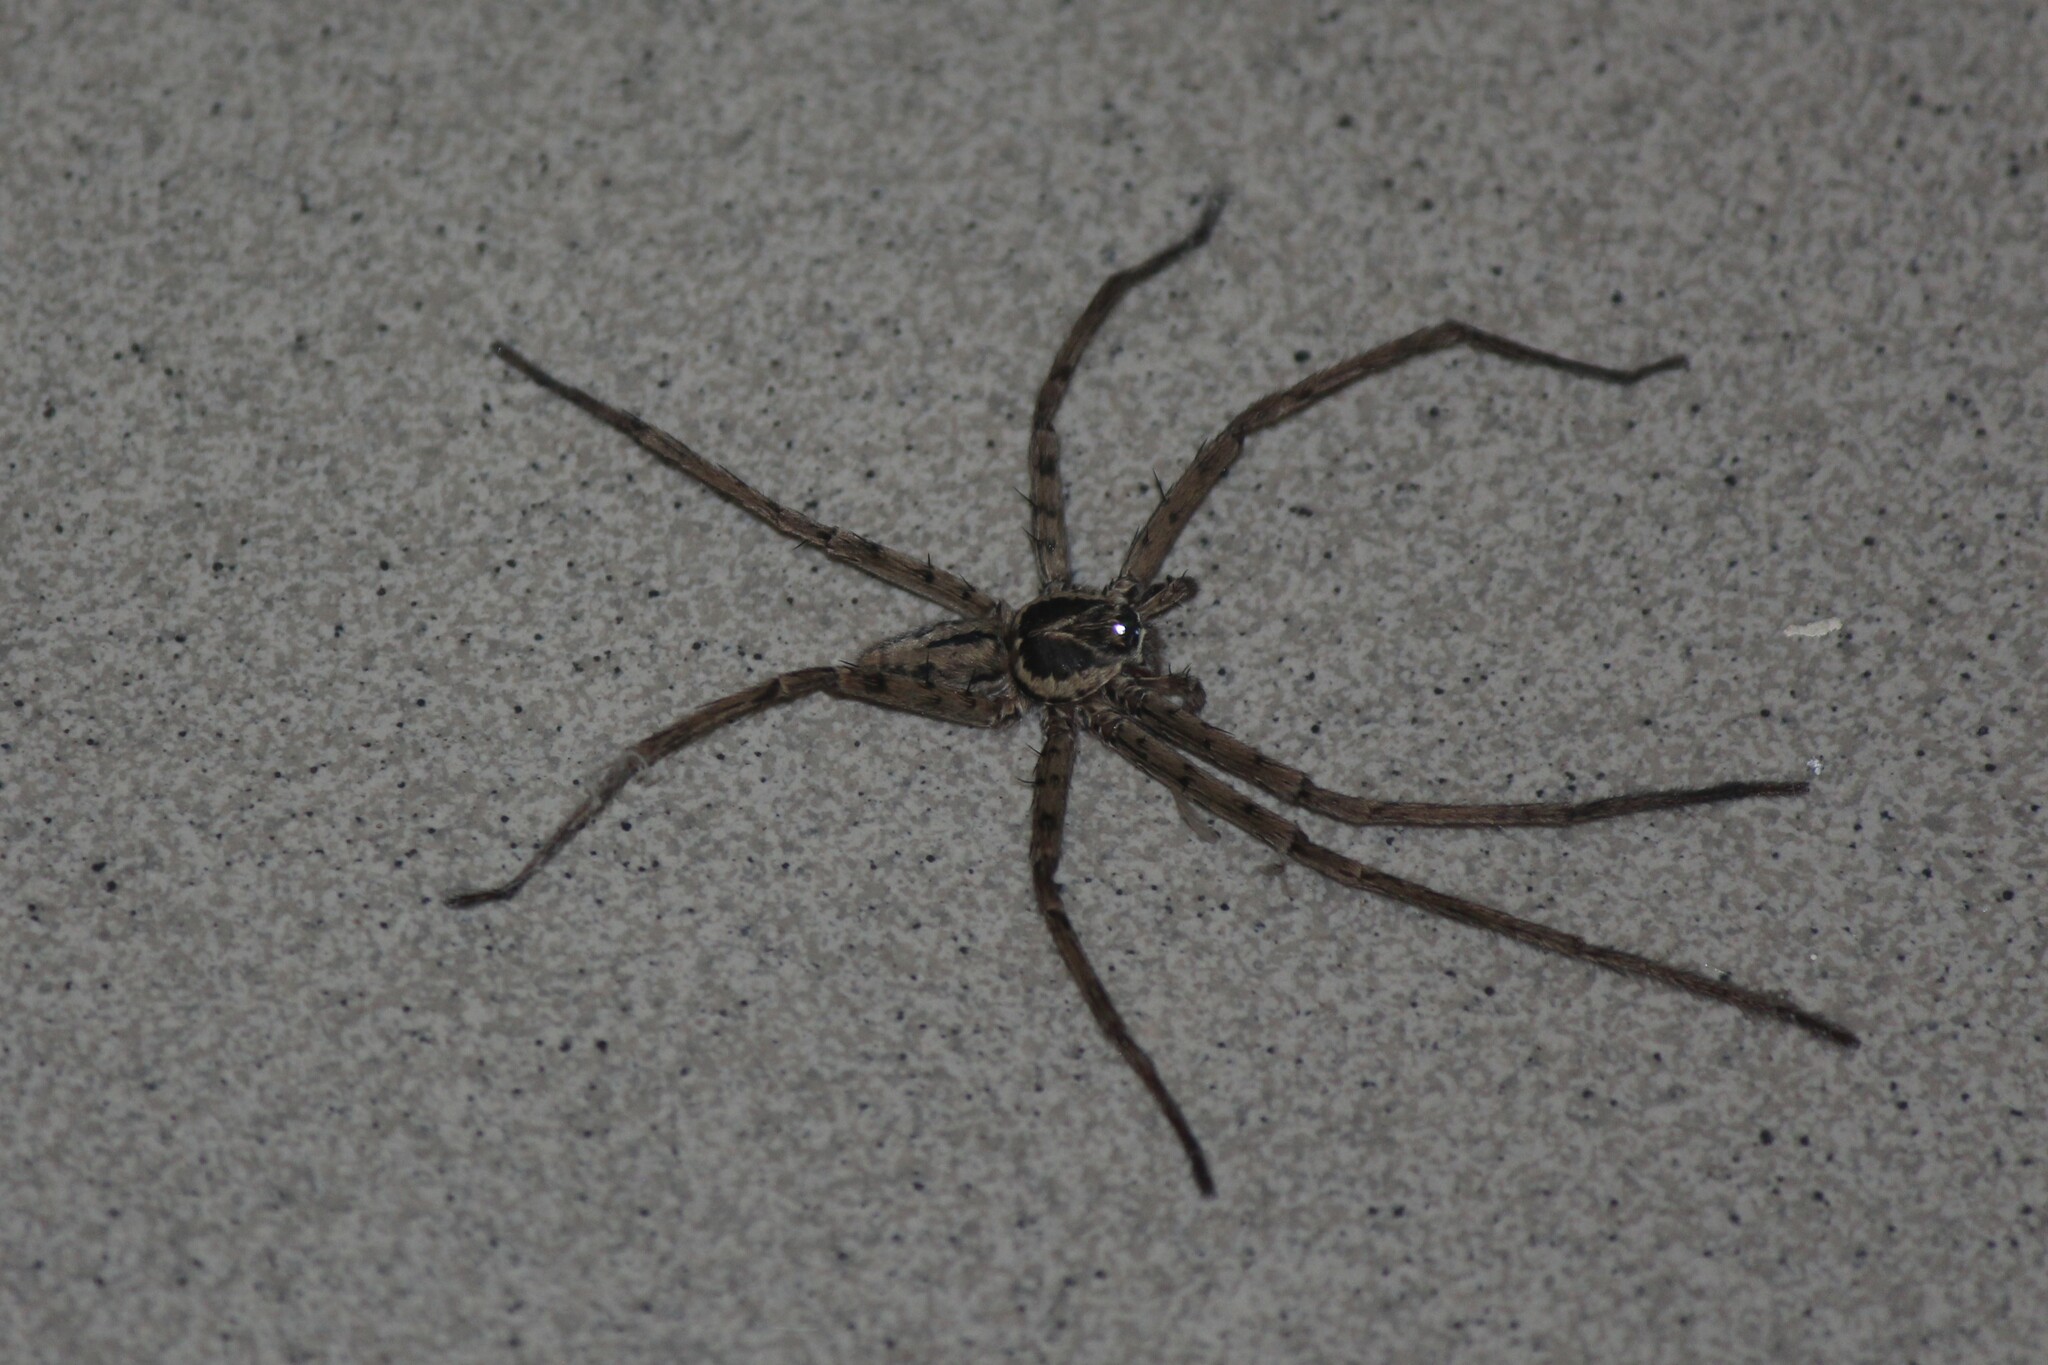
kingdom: Animalia
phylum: Arthropoda
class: Arachnida
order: Araneae
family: Sparassidae
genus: Heteropoda
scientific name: Heteropoda venatoria
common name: Huntsman spider
